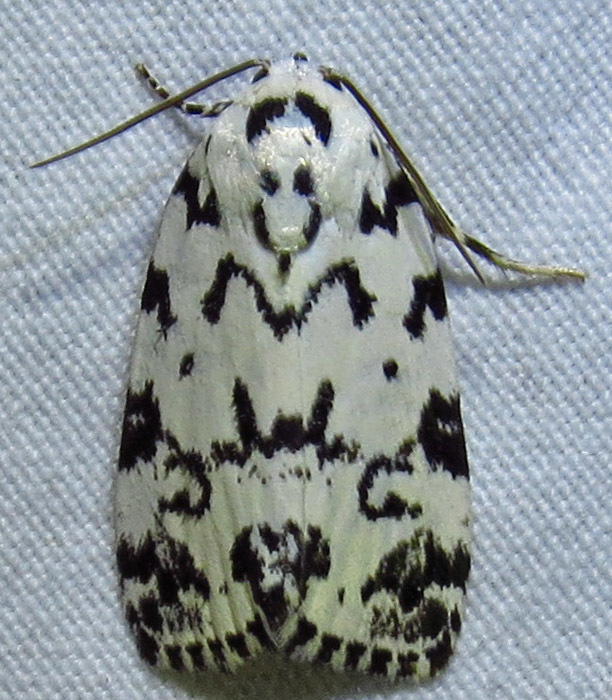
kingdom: Animalia
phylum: Arthropoda
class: Insecta
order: Lepidoptera
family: Noctuidae
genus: Polygrammate
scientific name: Polygrammate hebraeicum
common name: Hebrew moth
